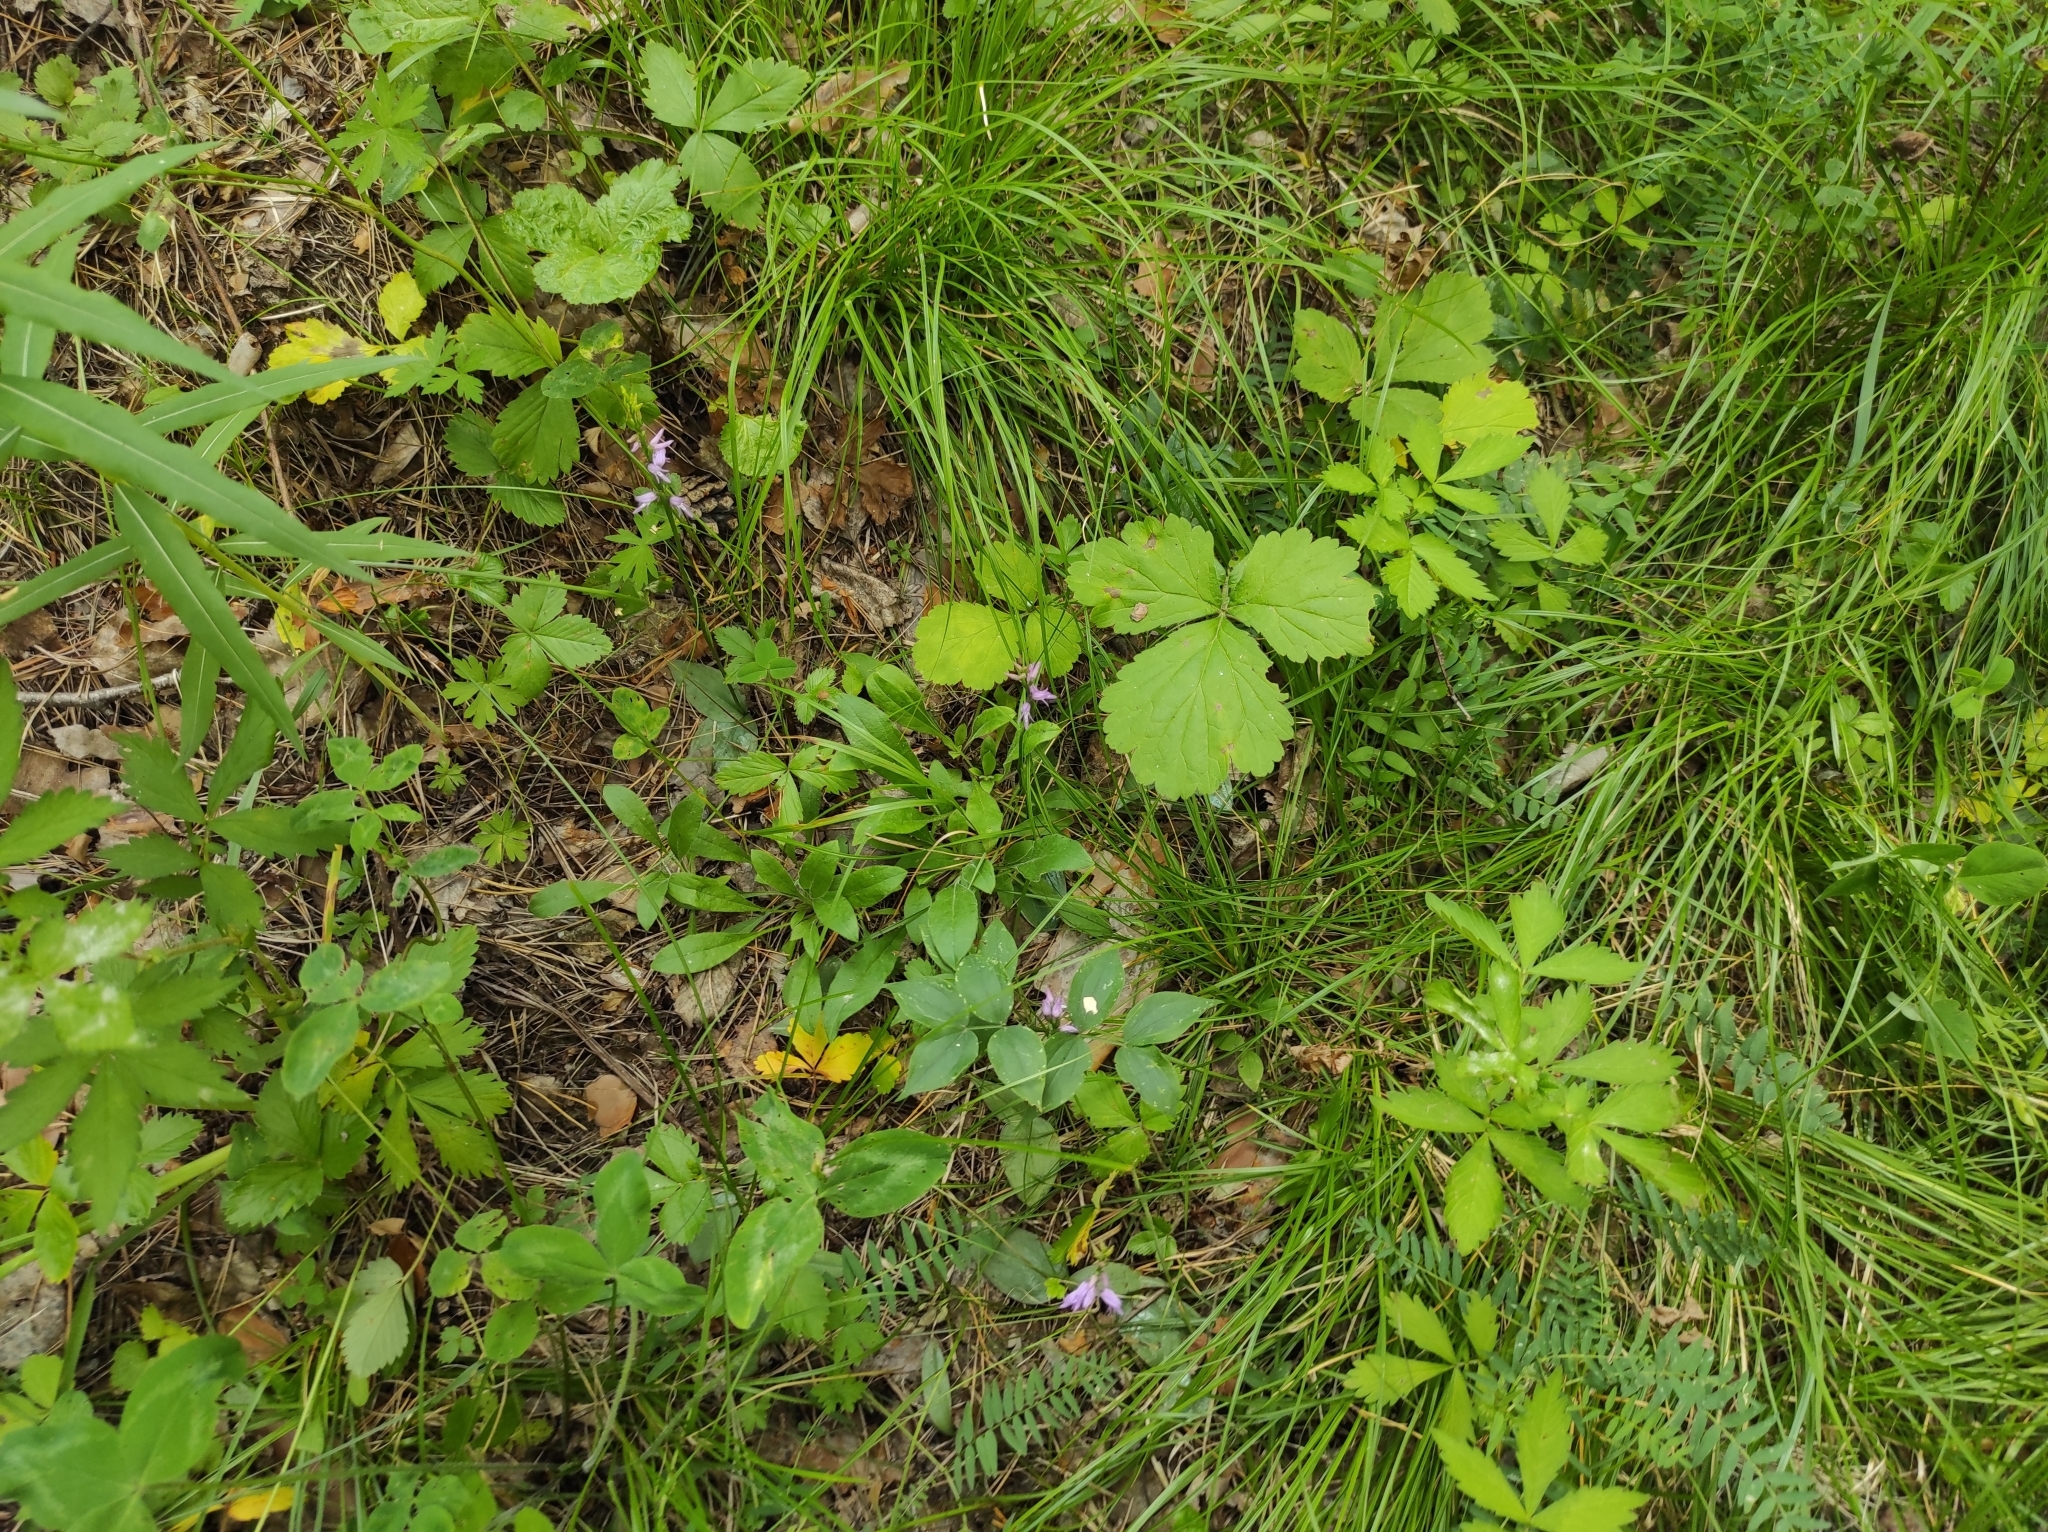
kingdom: Plantae
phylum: Tracheophyta
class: Magnoliopsida
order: Rosales
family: Rosaceae
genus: Rubus
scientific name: Rubus saxatilis
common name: Stone bramble
